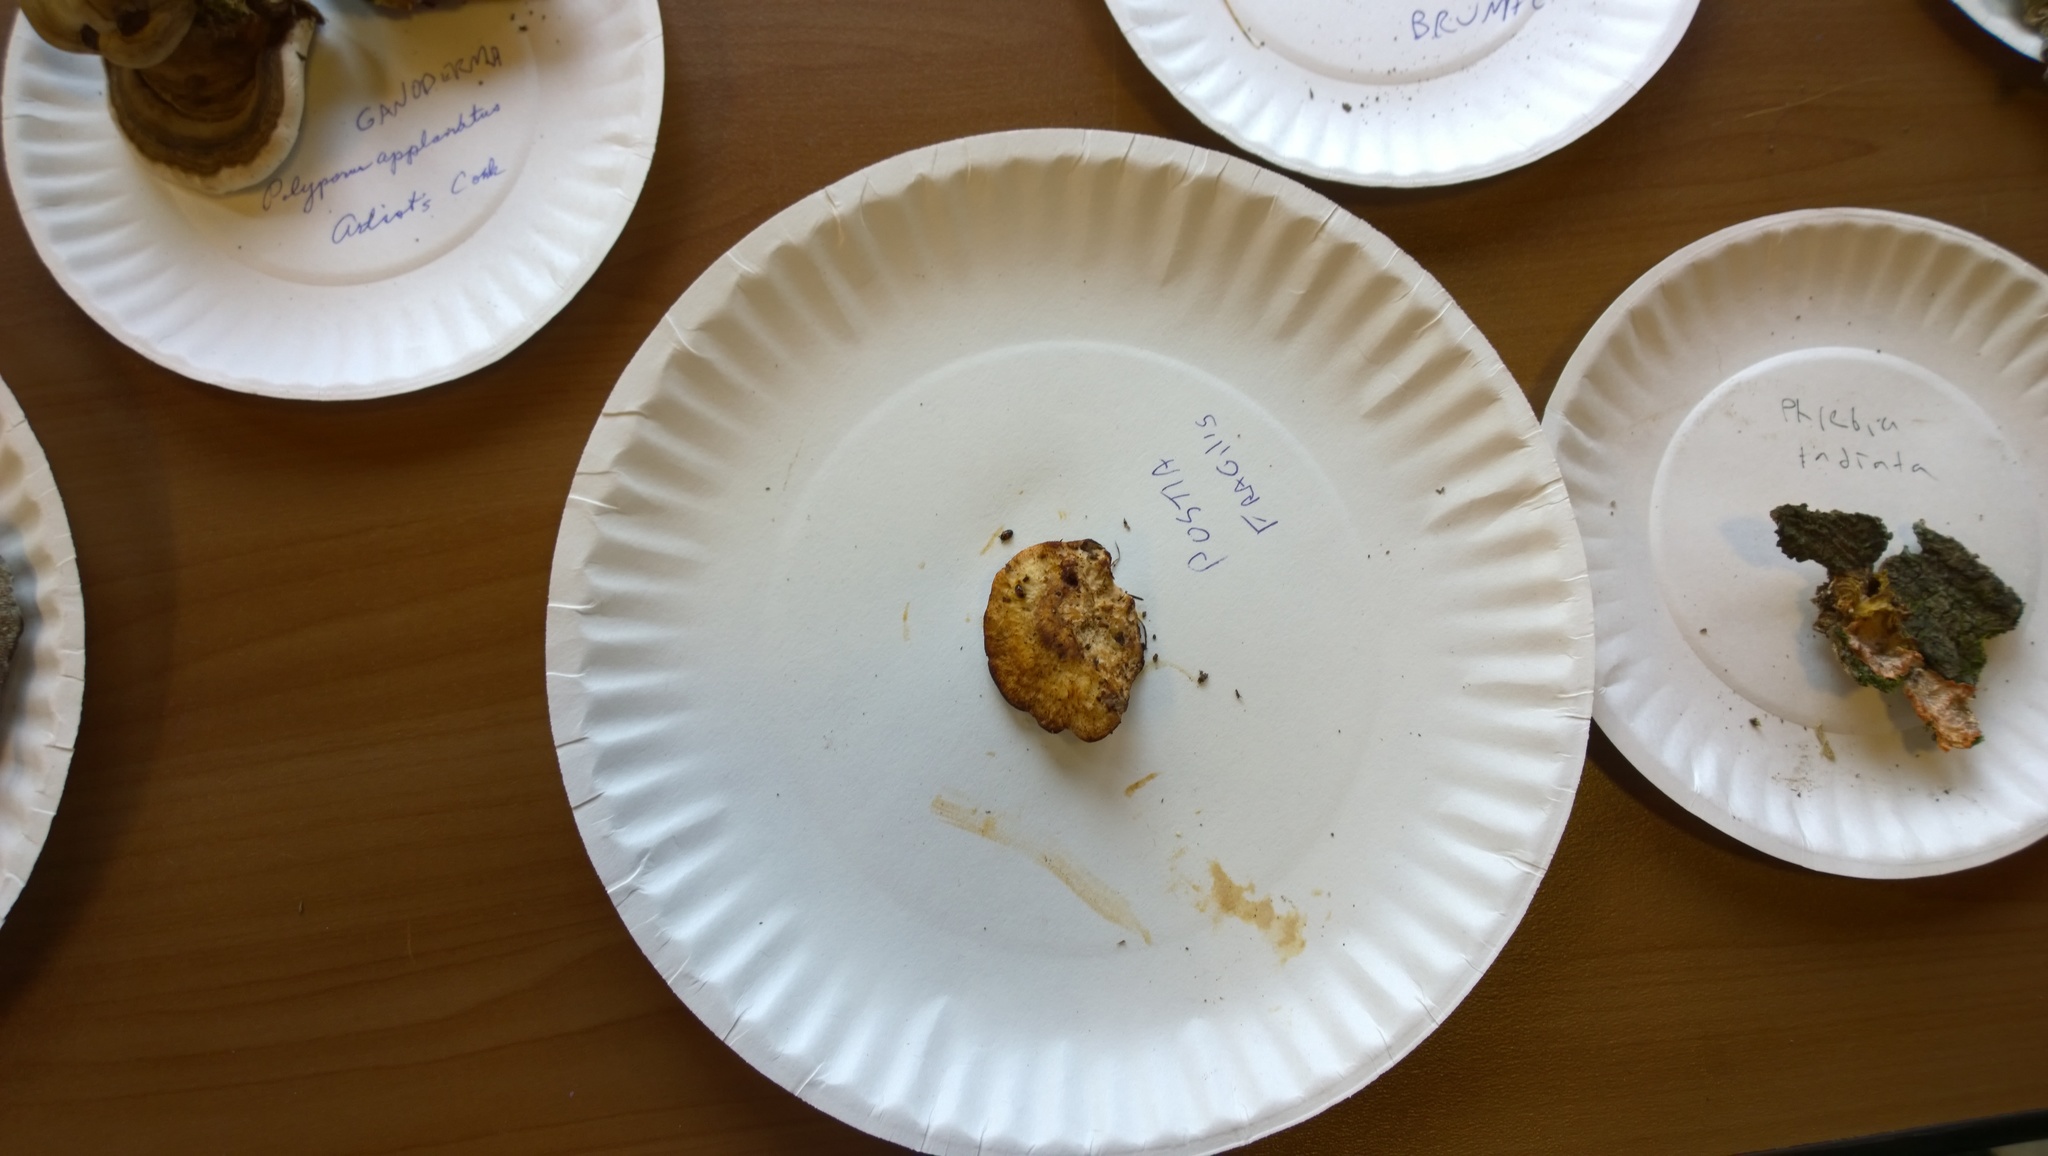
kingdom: Fungi
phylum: Basidiomycota
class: Agaricomycetes
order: Polyporales
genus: Fuscopostia
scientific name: Fuscopostia fragilis
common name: Brown-staining cheese polypore
